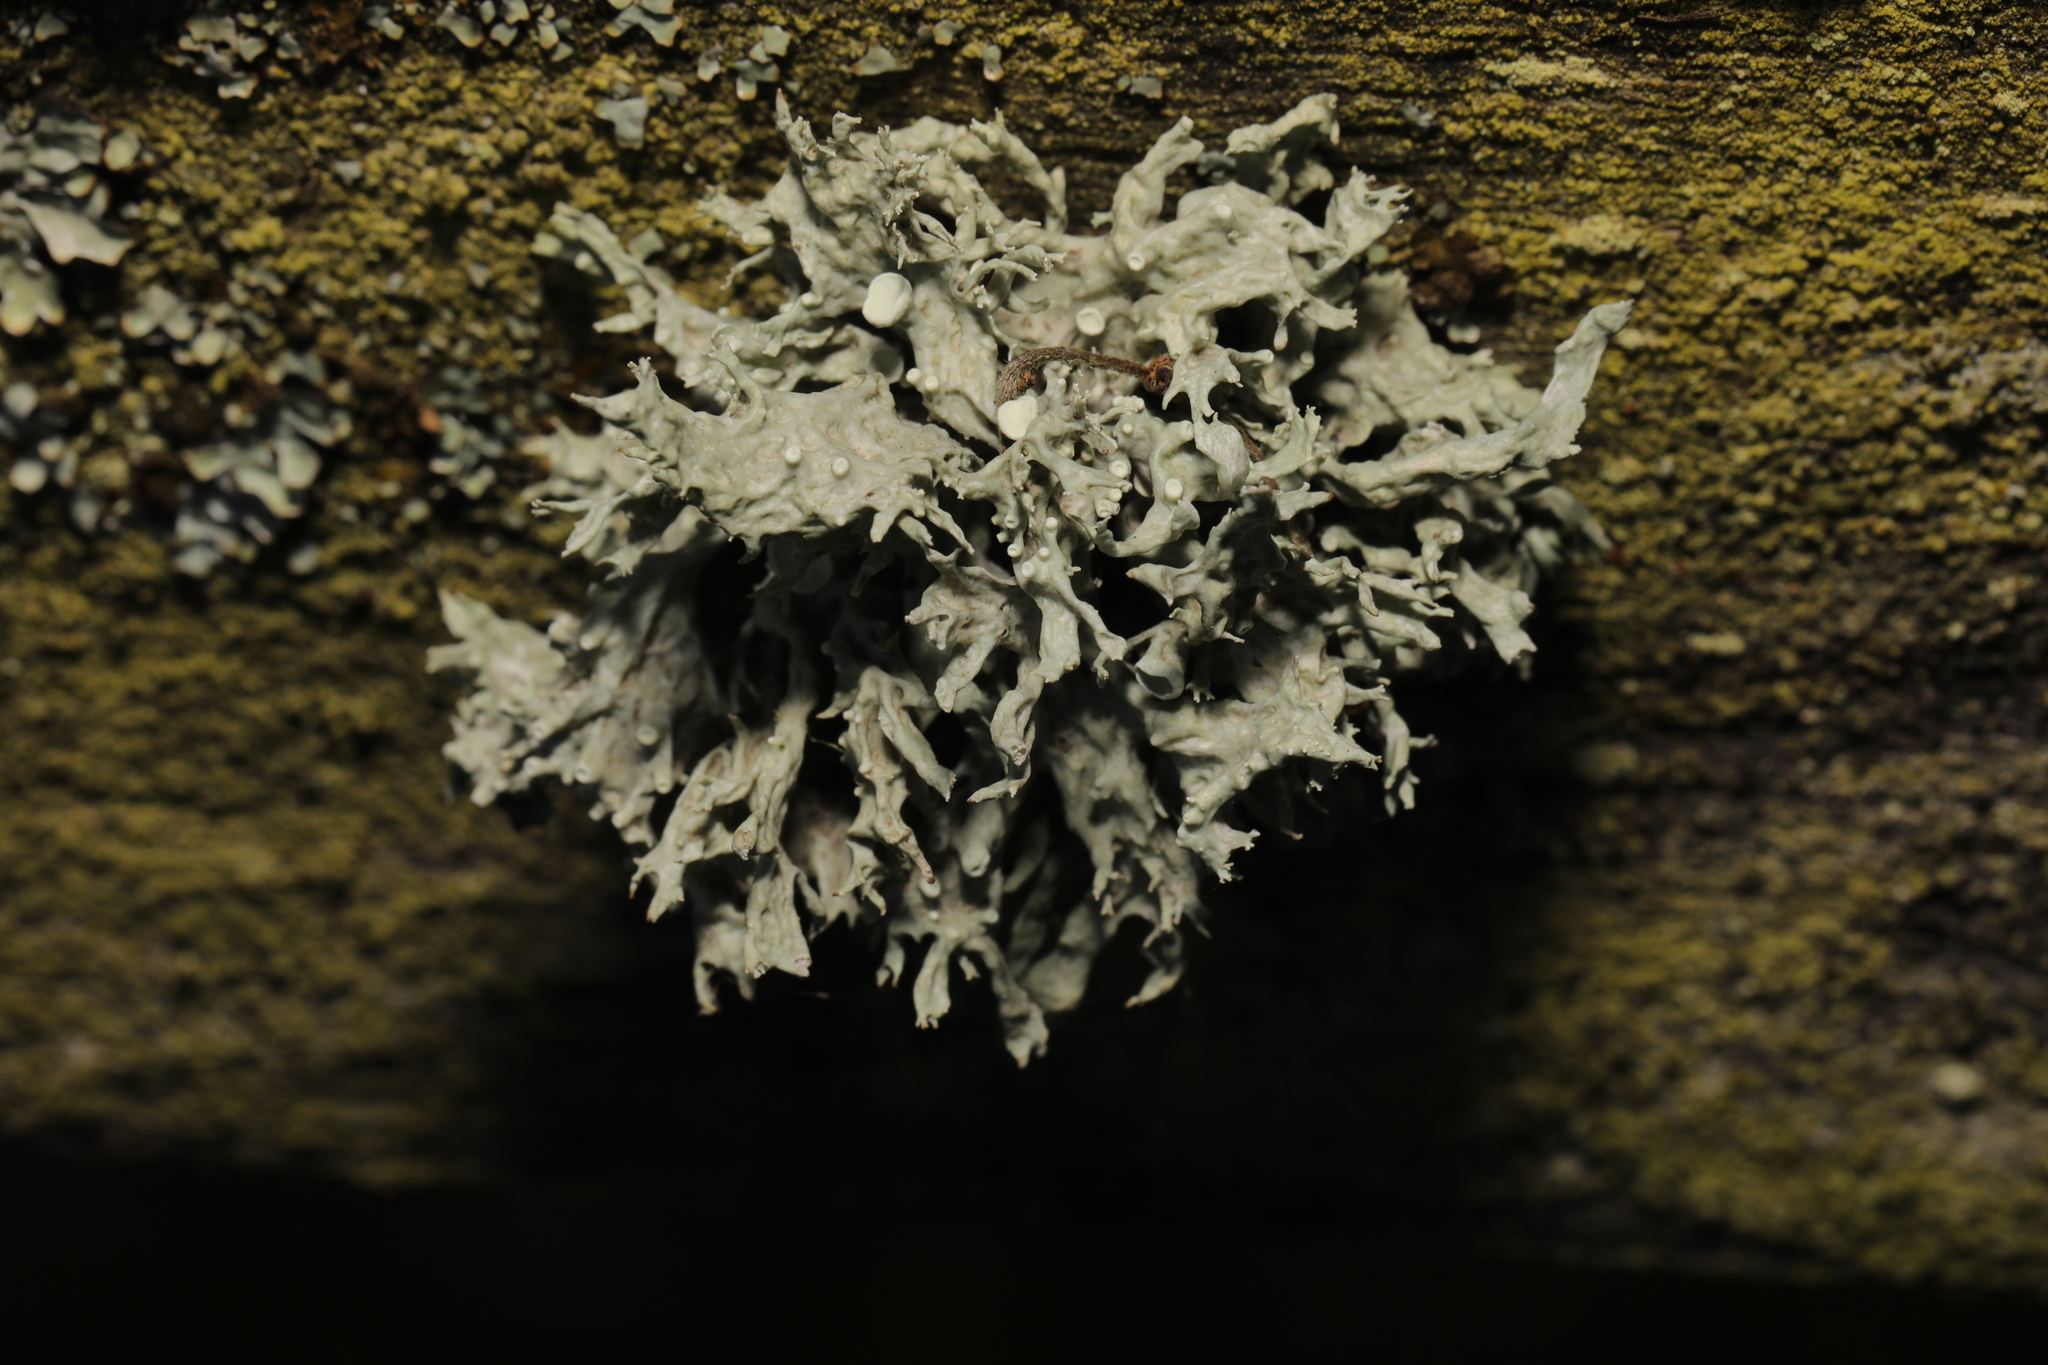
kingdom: Fungi
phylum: Ascomycota
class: Lecanoromycetes
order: Lecanorales
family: Parmeliaceae
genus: Evernia
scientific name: Evernia prunastri
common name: Oak moss
